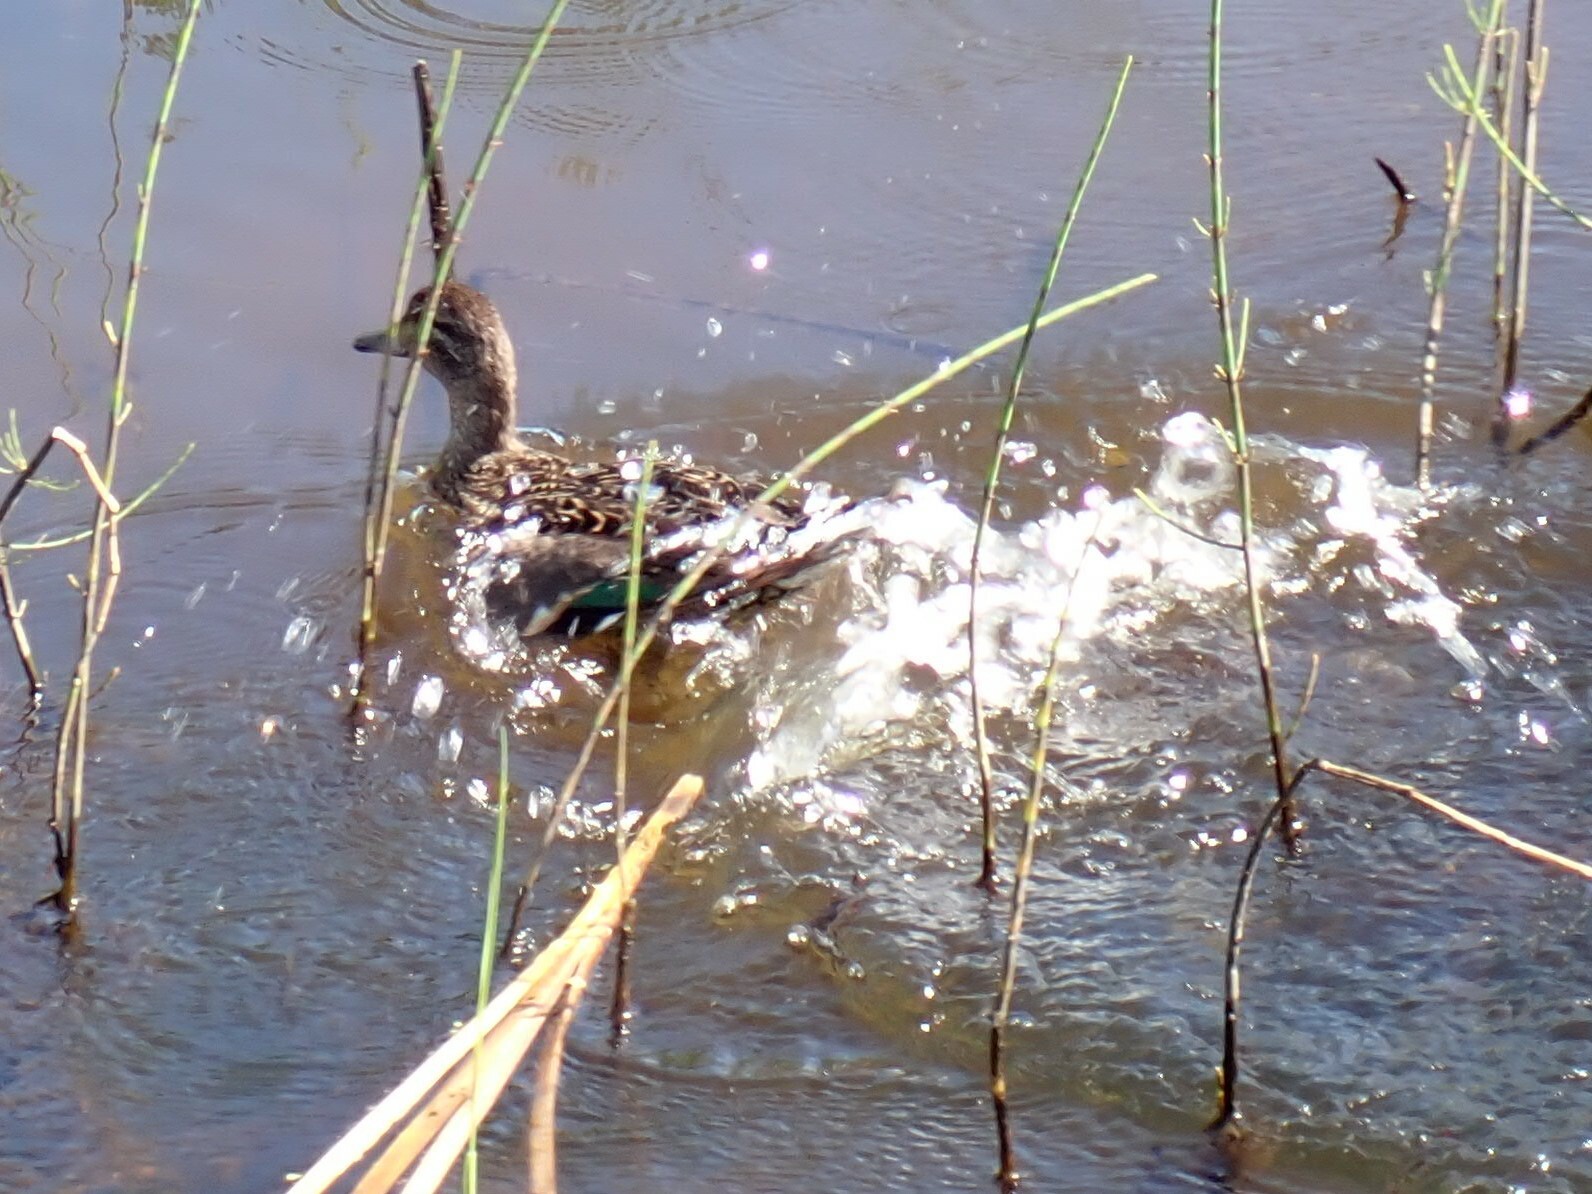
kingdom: Animalia
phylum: Chordata
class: Aves
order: Anseriformes
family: Anatidae
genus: Anas
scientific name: Anas crecca
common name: Eurasian teal
